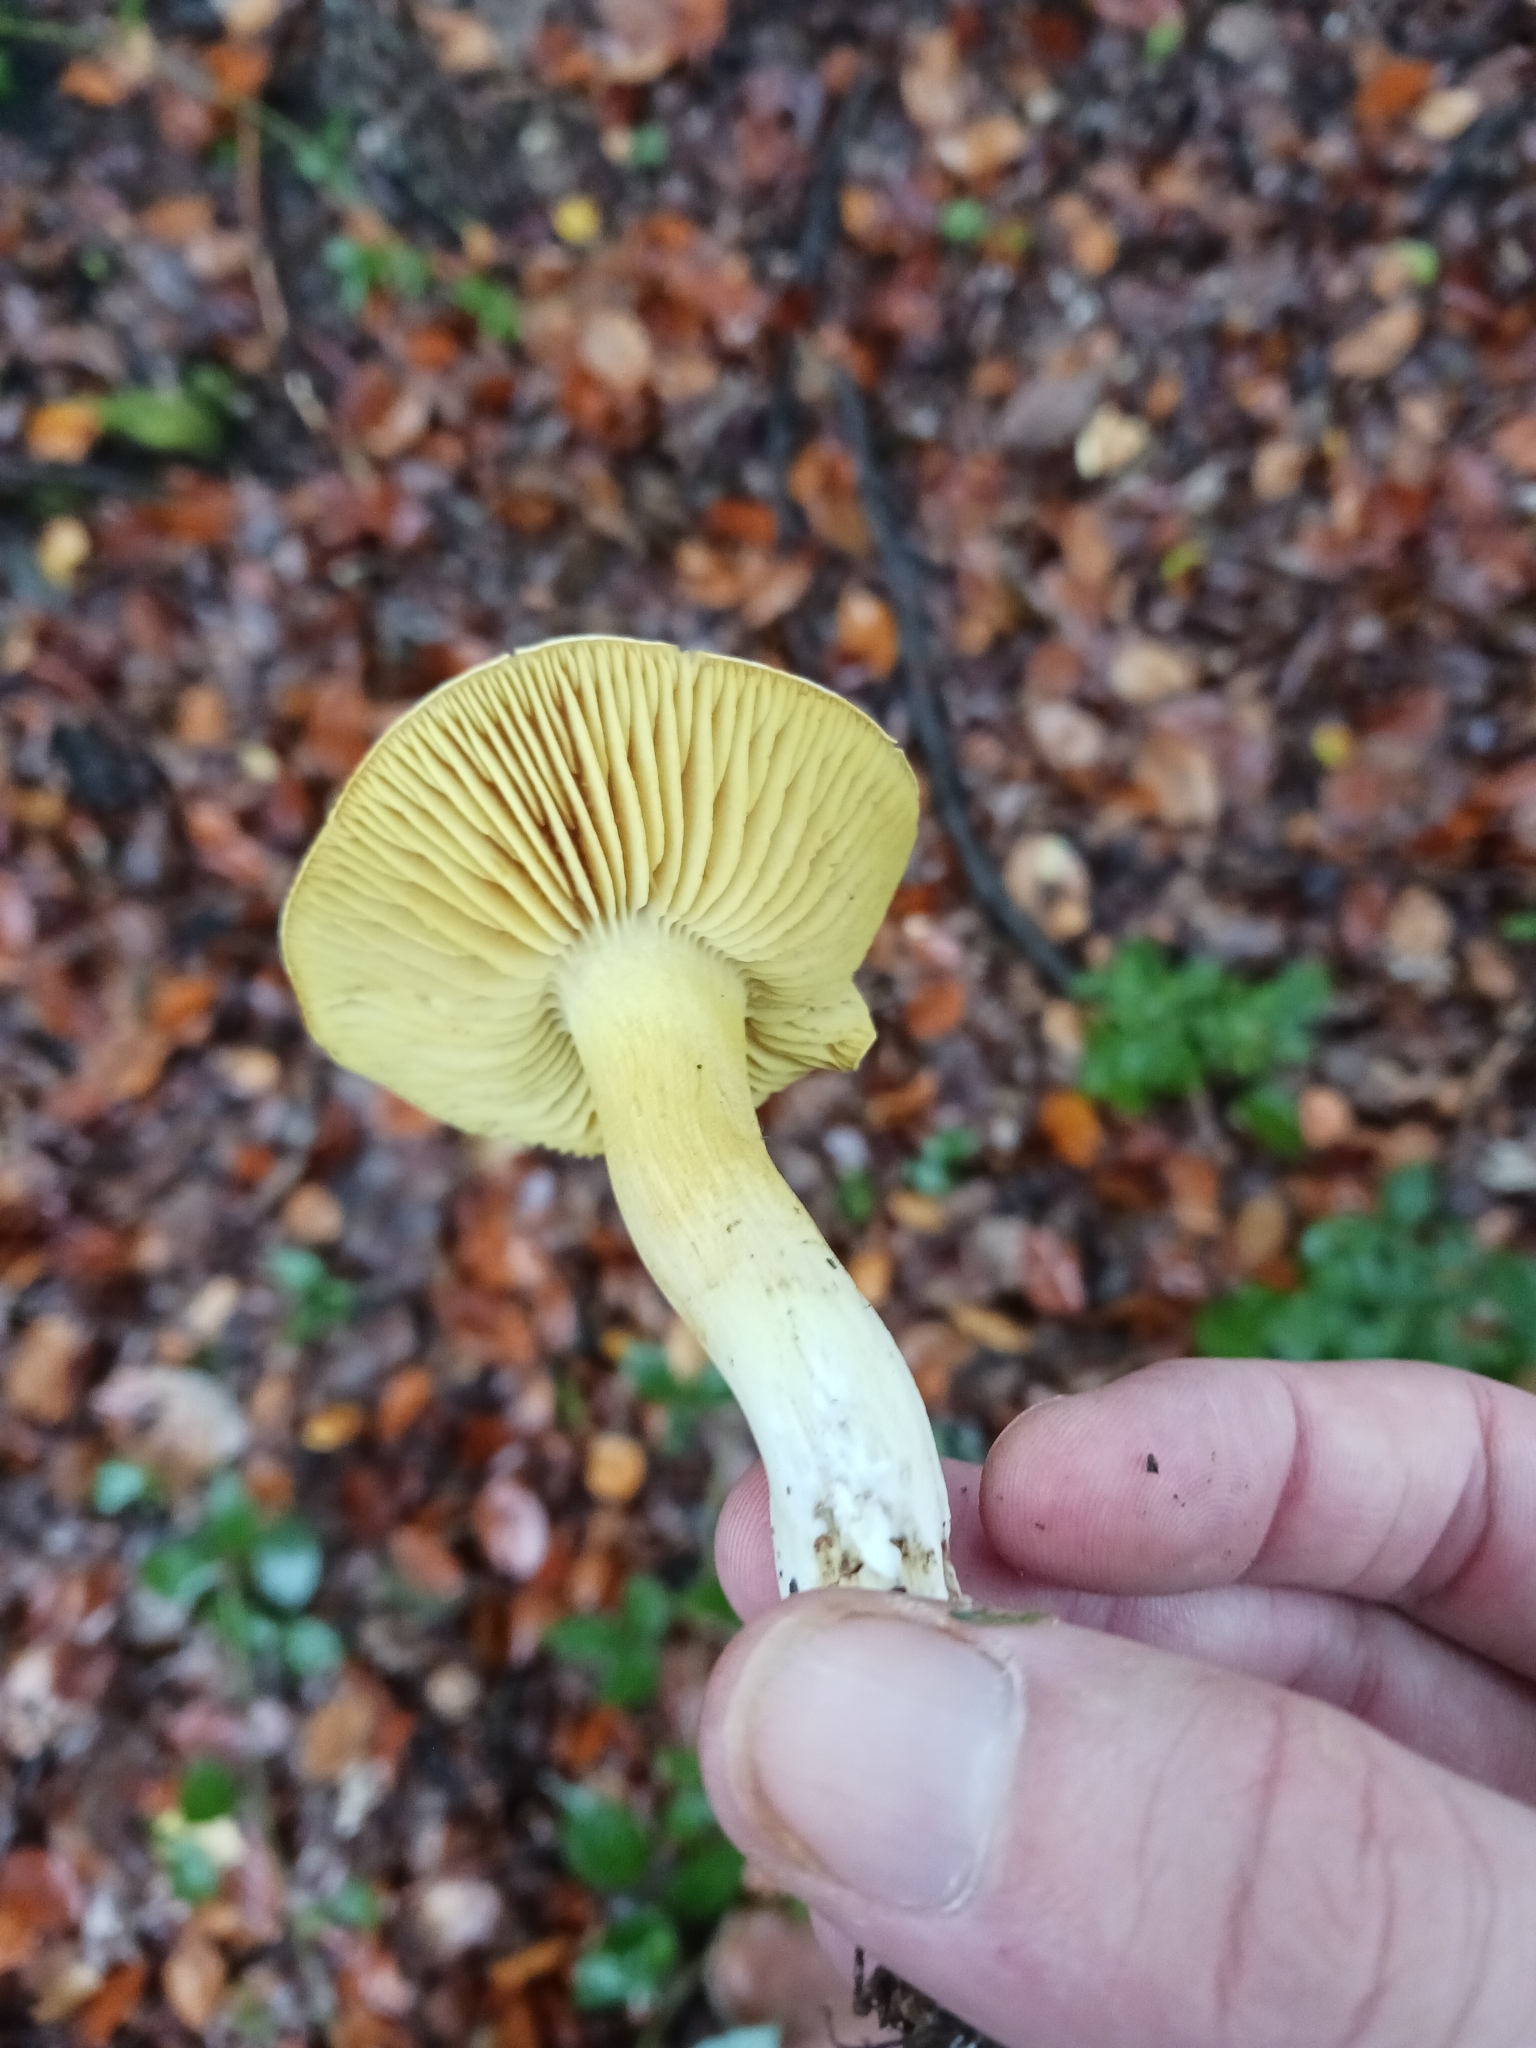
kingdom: Fungi
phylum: Basidiomycota
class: Agaricomycetes
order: Agaricales
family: Tricholomataceae
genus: Tricholoma
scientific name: Tricholoma sulphureum
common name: Stinky knight
